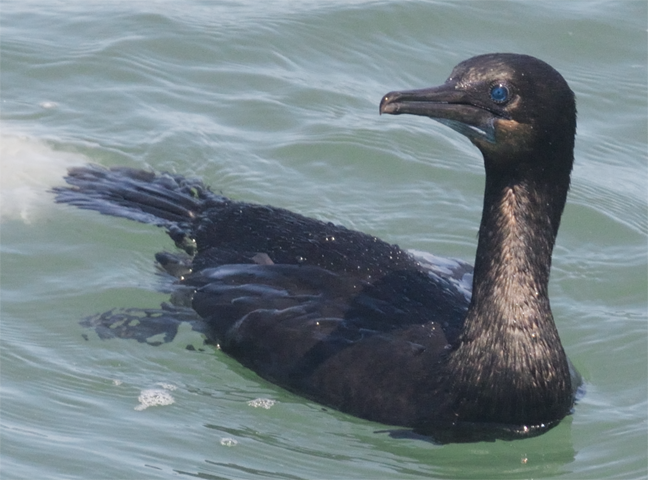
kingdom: Animalia
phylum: Chordata
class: Aves
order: Suliformes
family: Phalacrocoracidae
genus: Urile
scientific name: Urile penicillatus
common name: Brandt's cormorant
